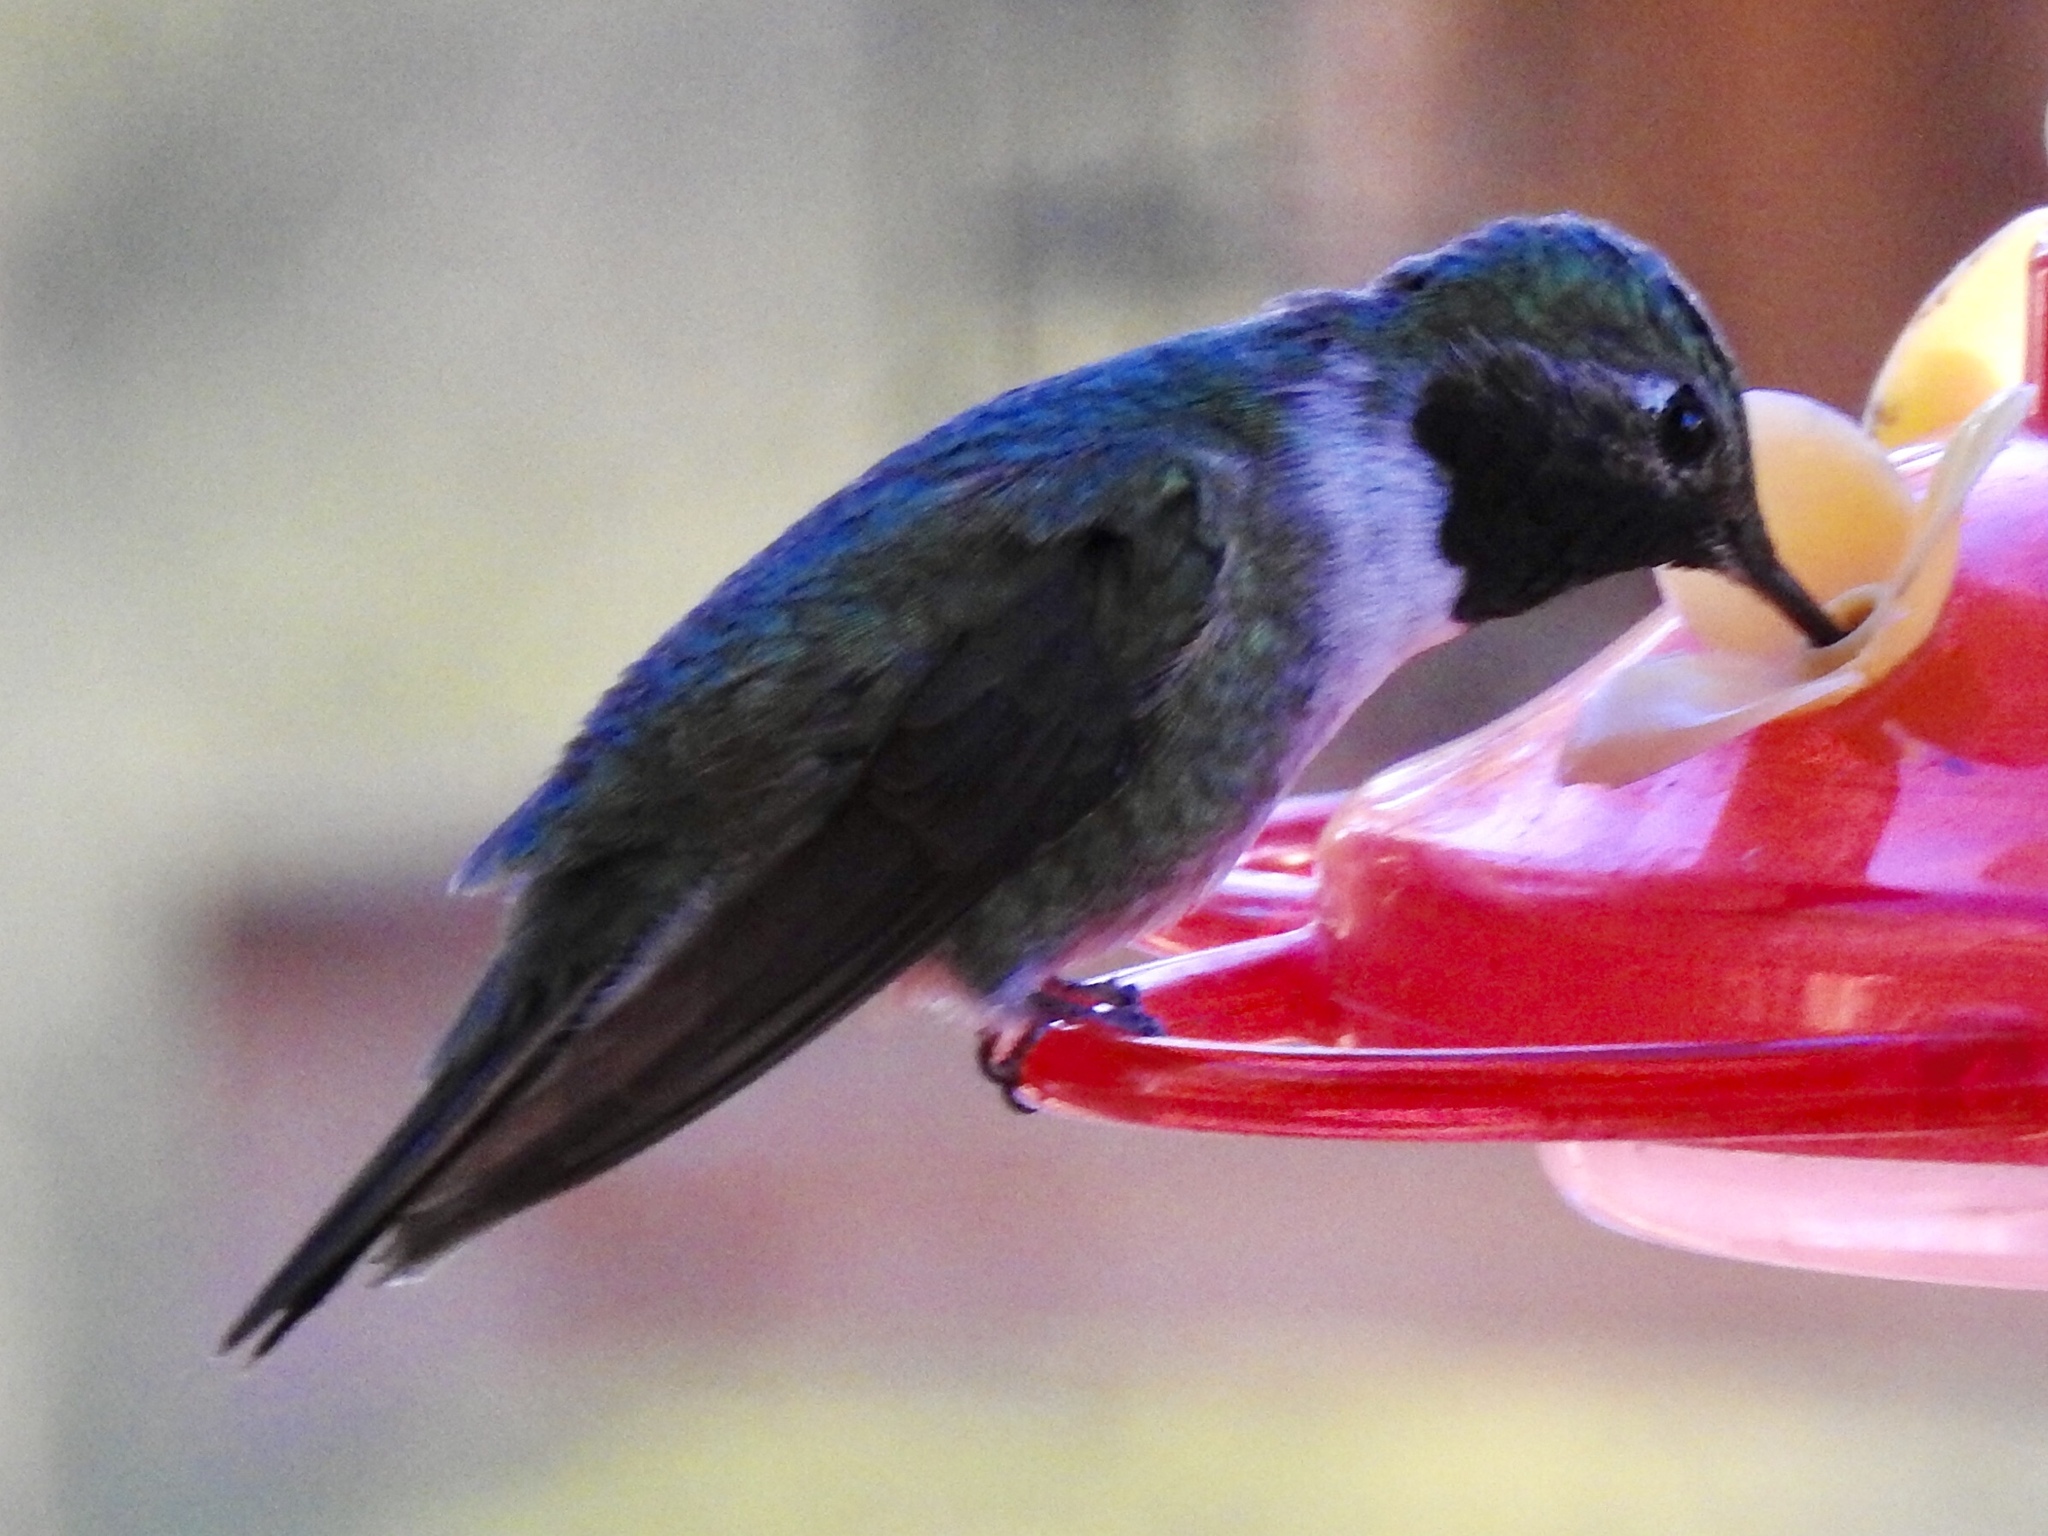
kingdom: Animalia
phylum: Chordata
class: Aves
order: Apodiformes
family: Trochilidae
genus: Selasphorus
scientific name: Selasphorus platycercus
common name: Broad-tailed hummingbird
